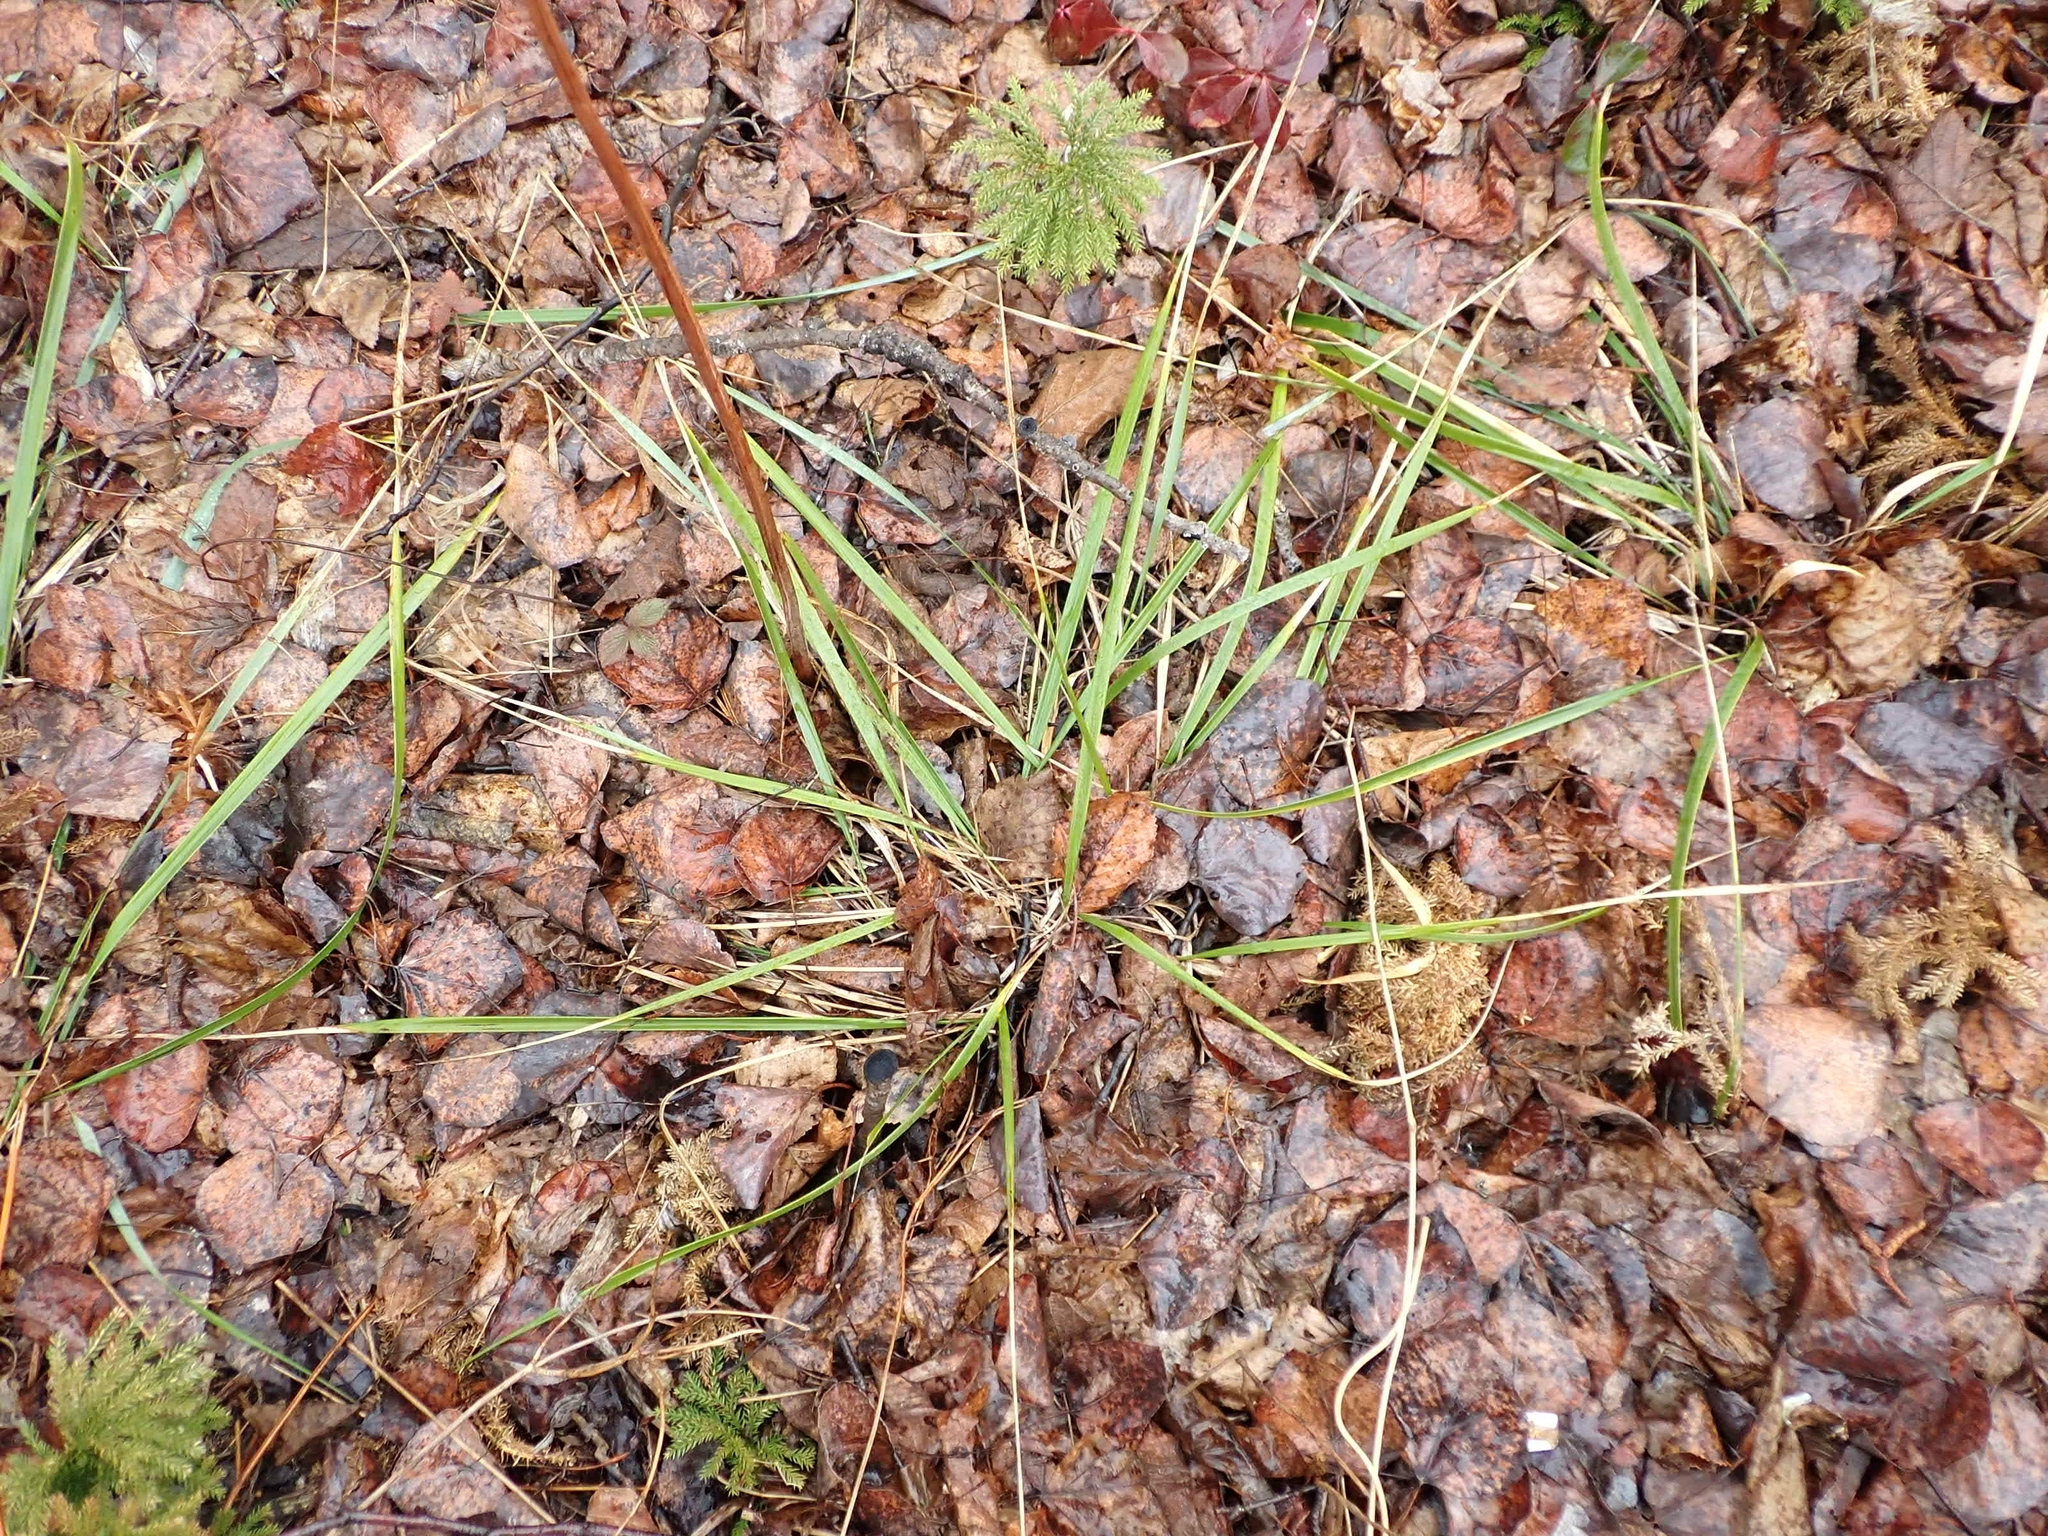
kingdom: Plantae
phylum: Tracheophyta
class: Liliopsida
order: Poales
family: Poaceae
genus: Oryzopsis
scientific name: Oryzopsis asperifolia
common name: Rough-leaved mountain rice
